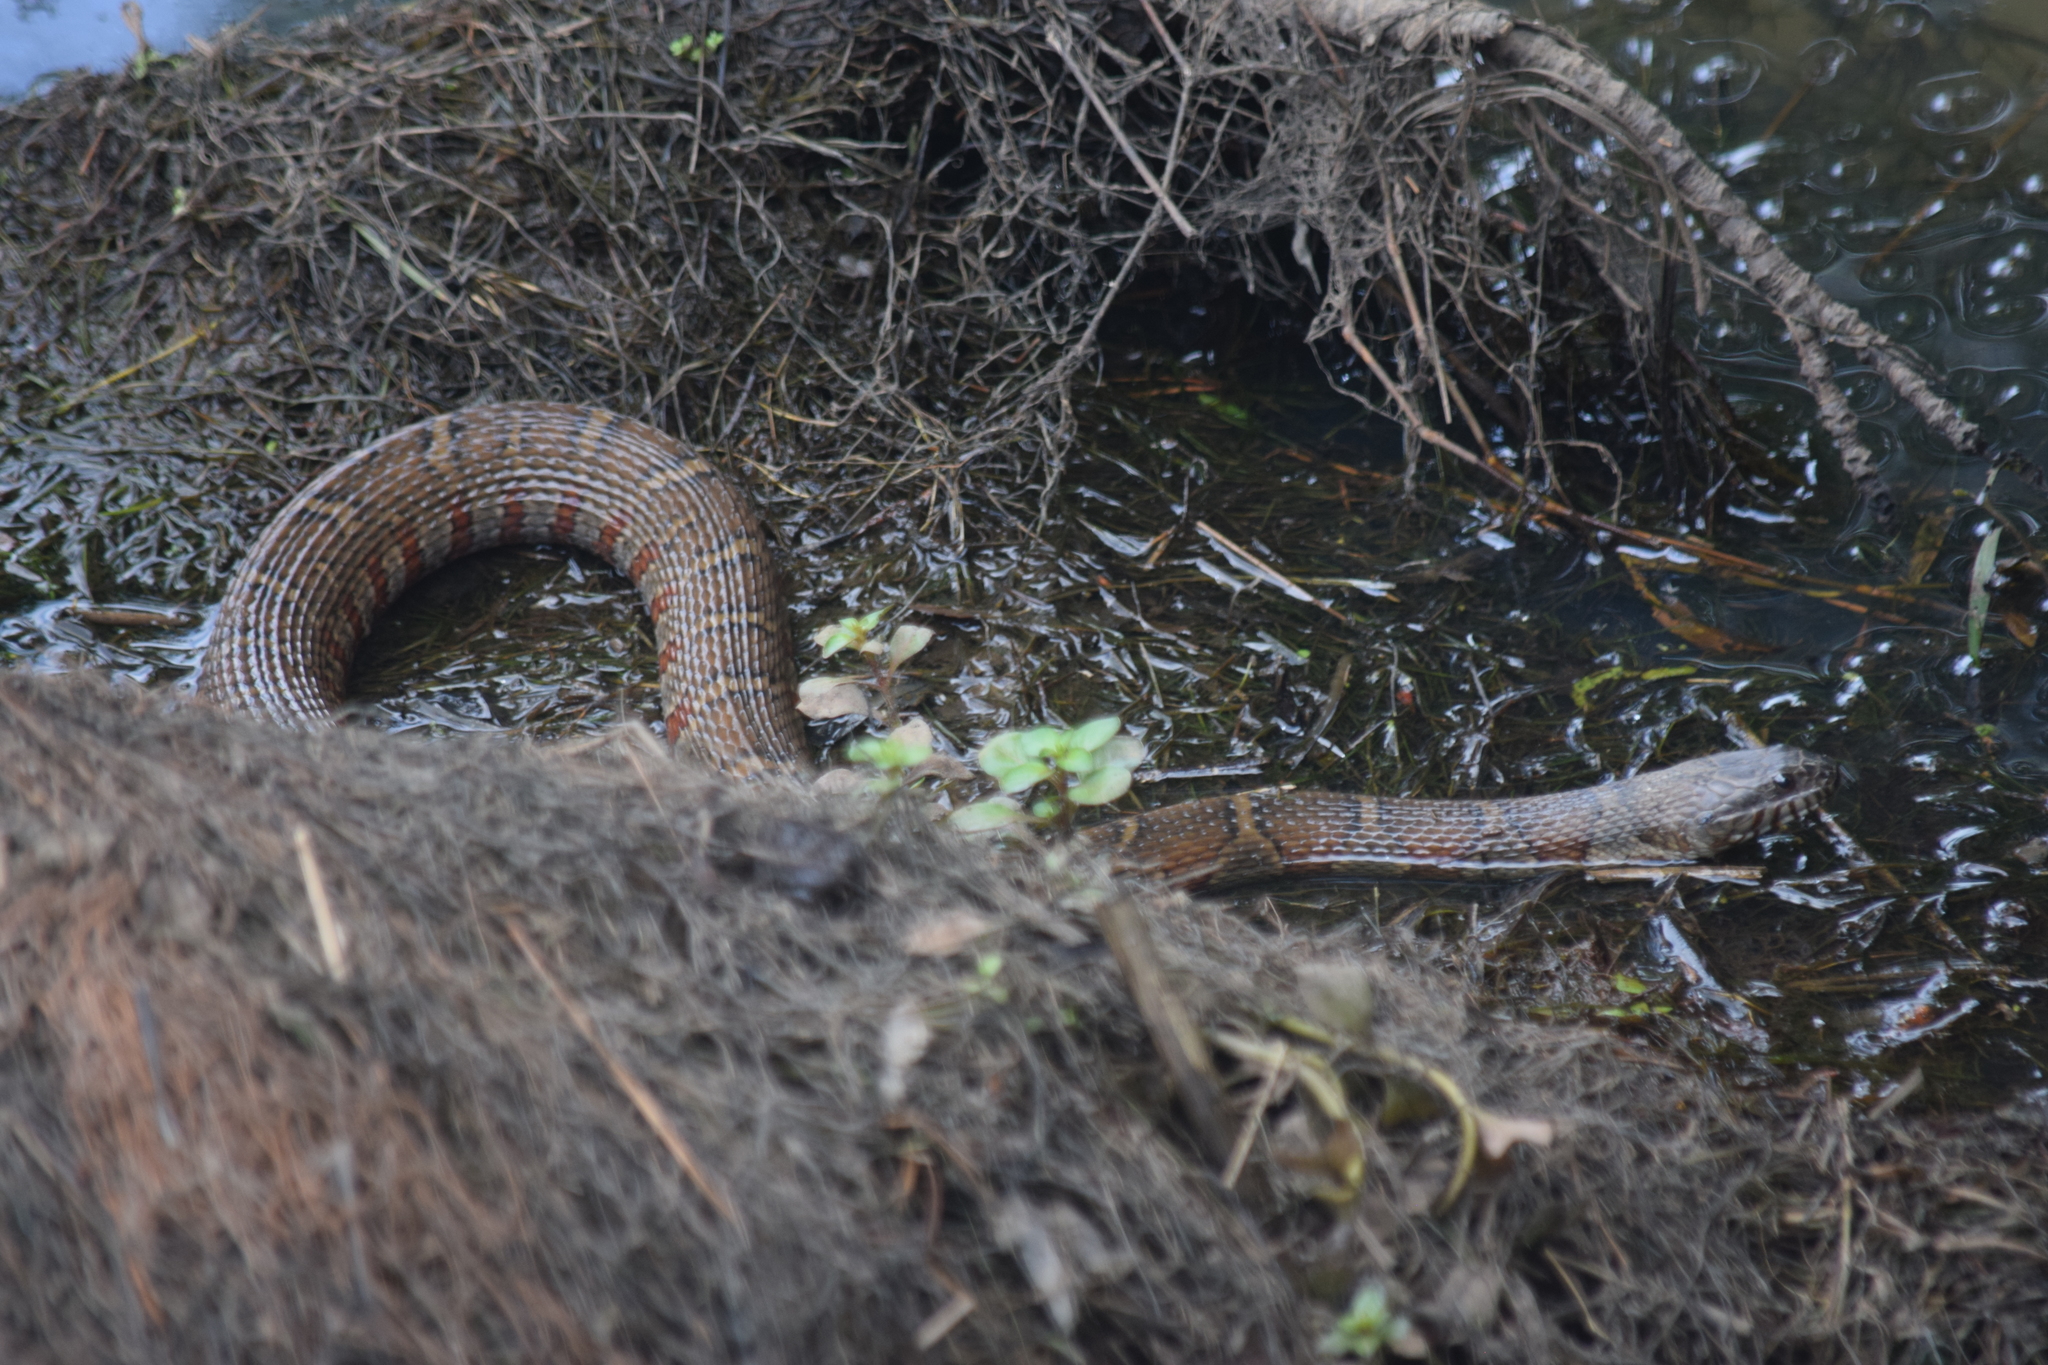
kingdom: Animalia
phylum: Chordata
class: Squamata
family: Colubridae
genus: Nerodia
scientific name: Nerodia sipedon
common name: Northern water snake
